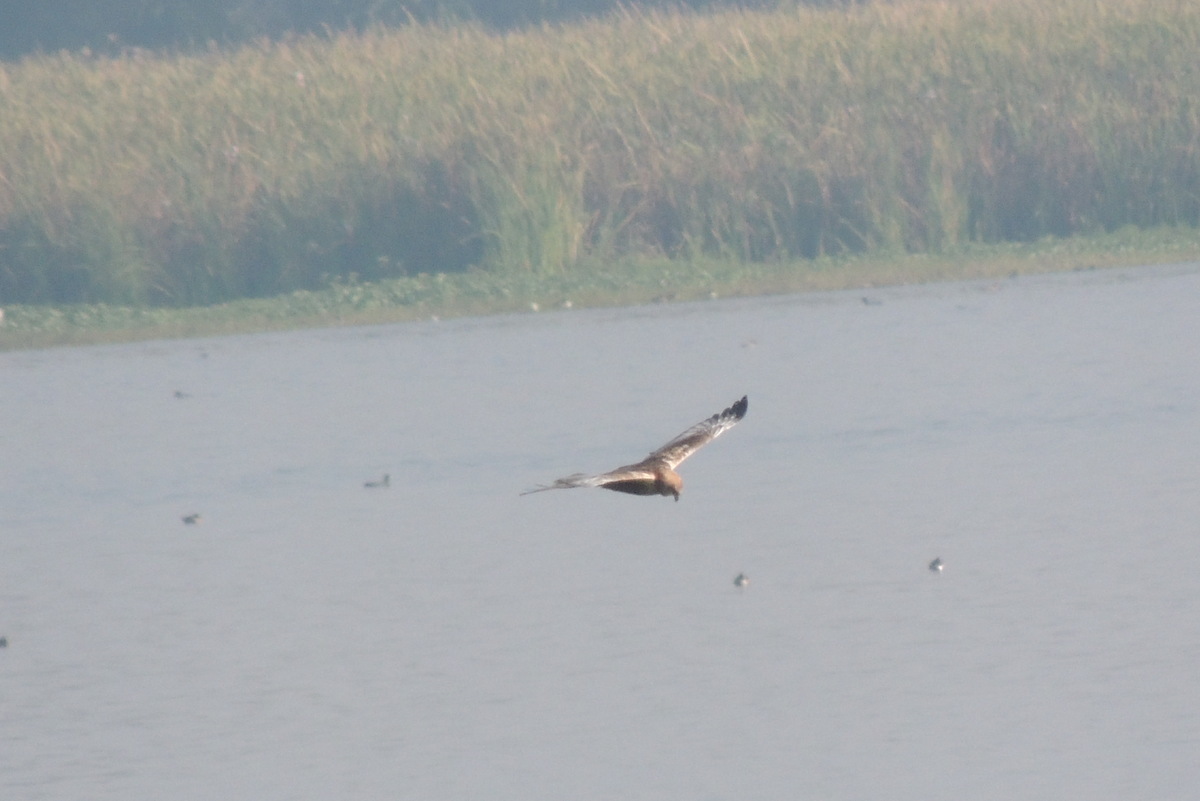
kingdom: Animalia
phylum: Chordata
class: Aves
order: Accipitriformes
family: Accipitridae
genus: Circus
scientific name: Circus aeruginosus
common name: Western marsh harrier
